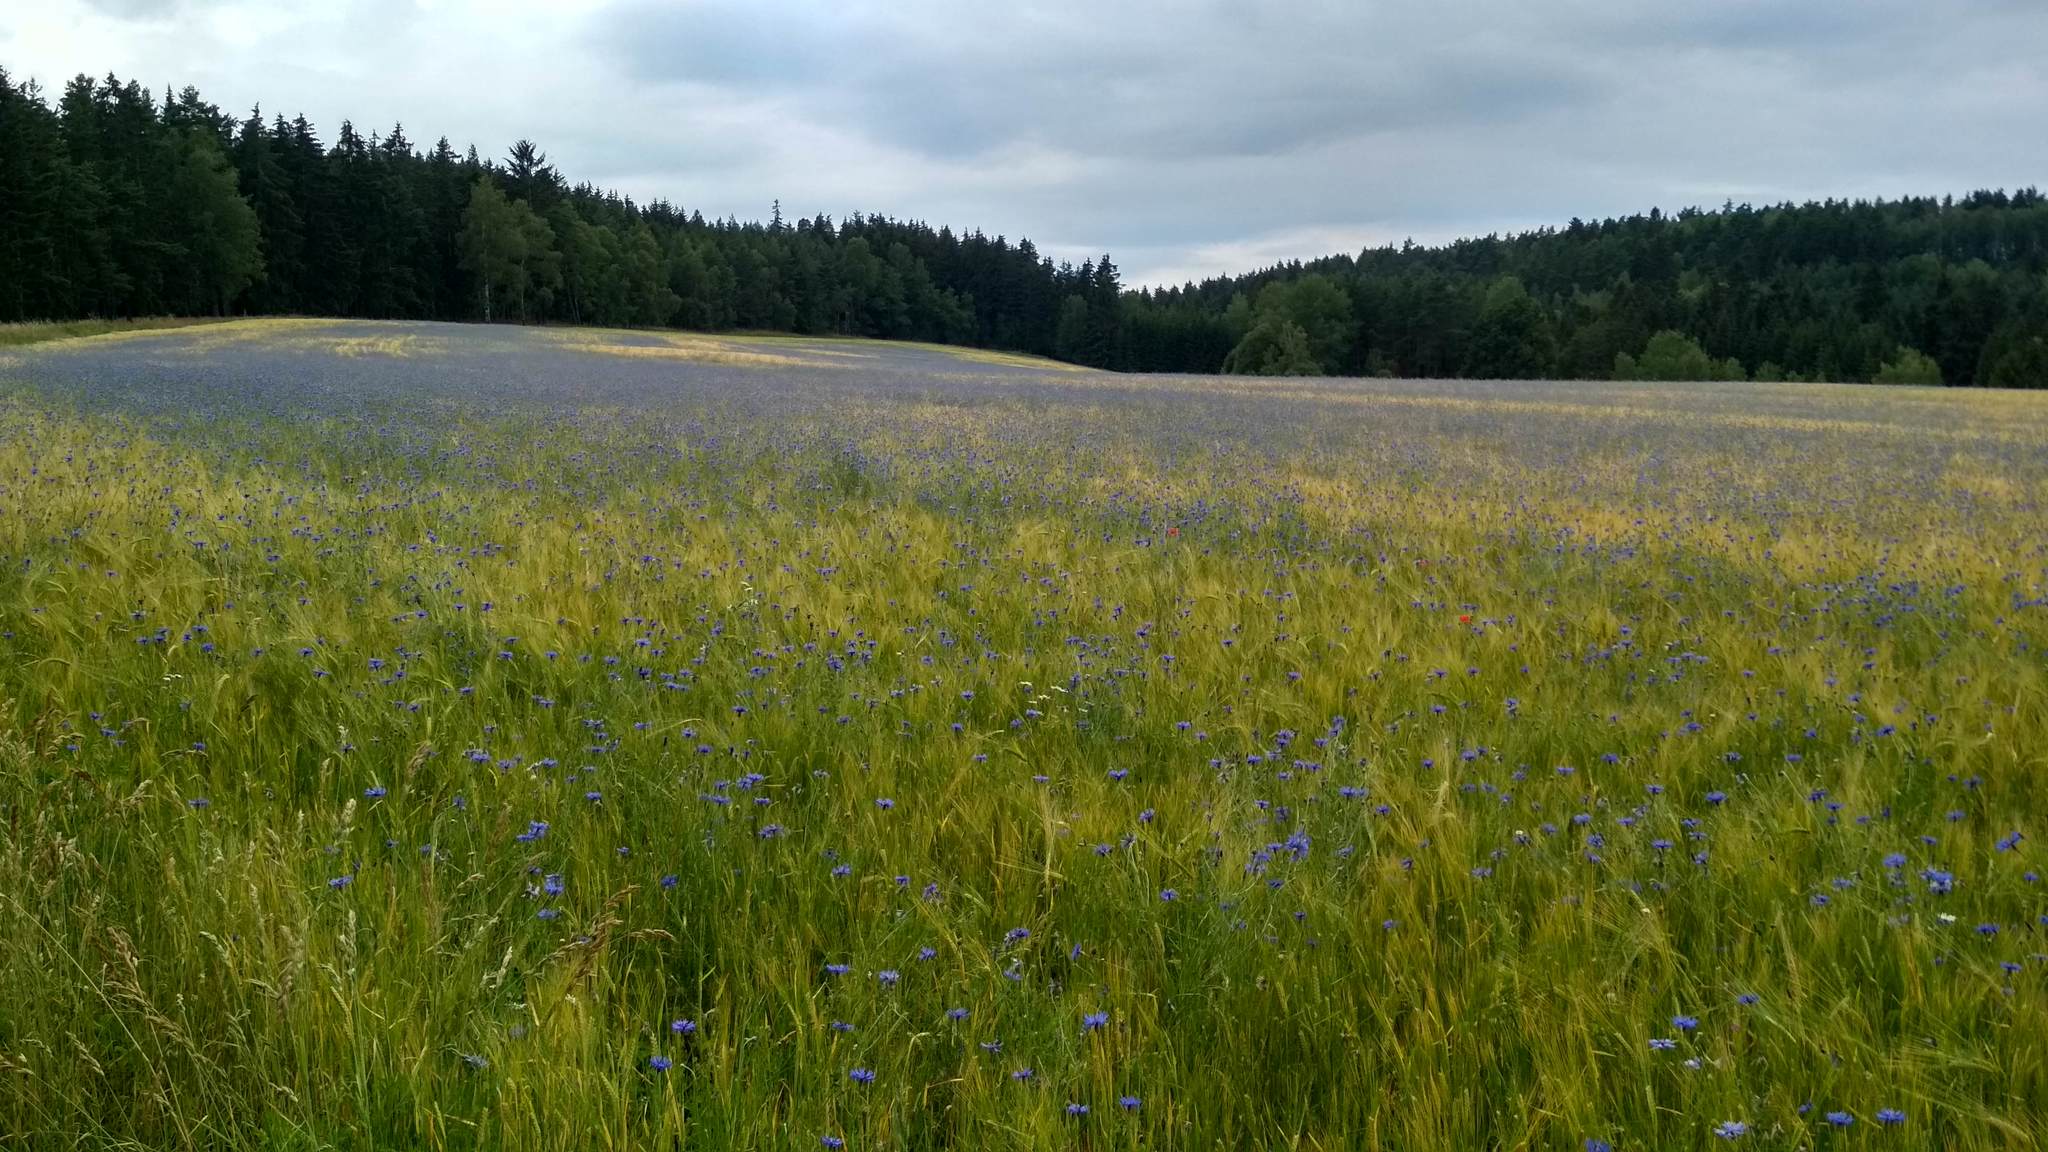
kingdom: Plantae
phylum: Tracheophyta
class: Magnoliopsida
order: Asterales
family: Asteraceae
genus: Centaurea
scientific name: Centaurea cyanus
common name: Cornflower
